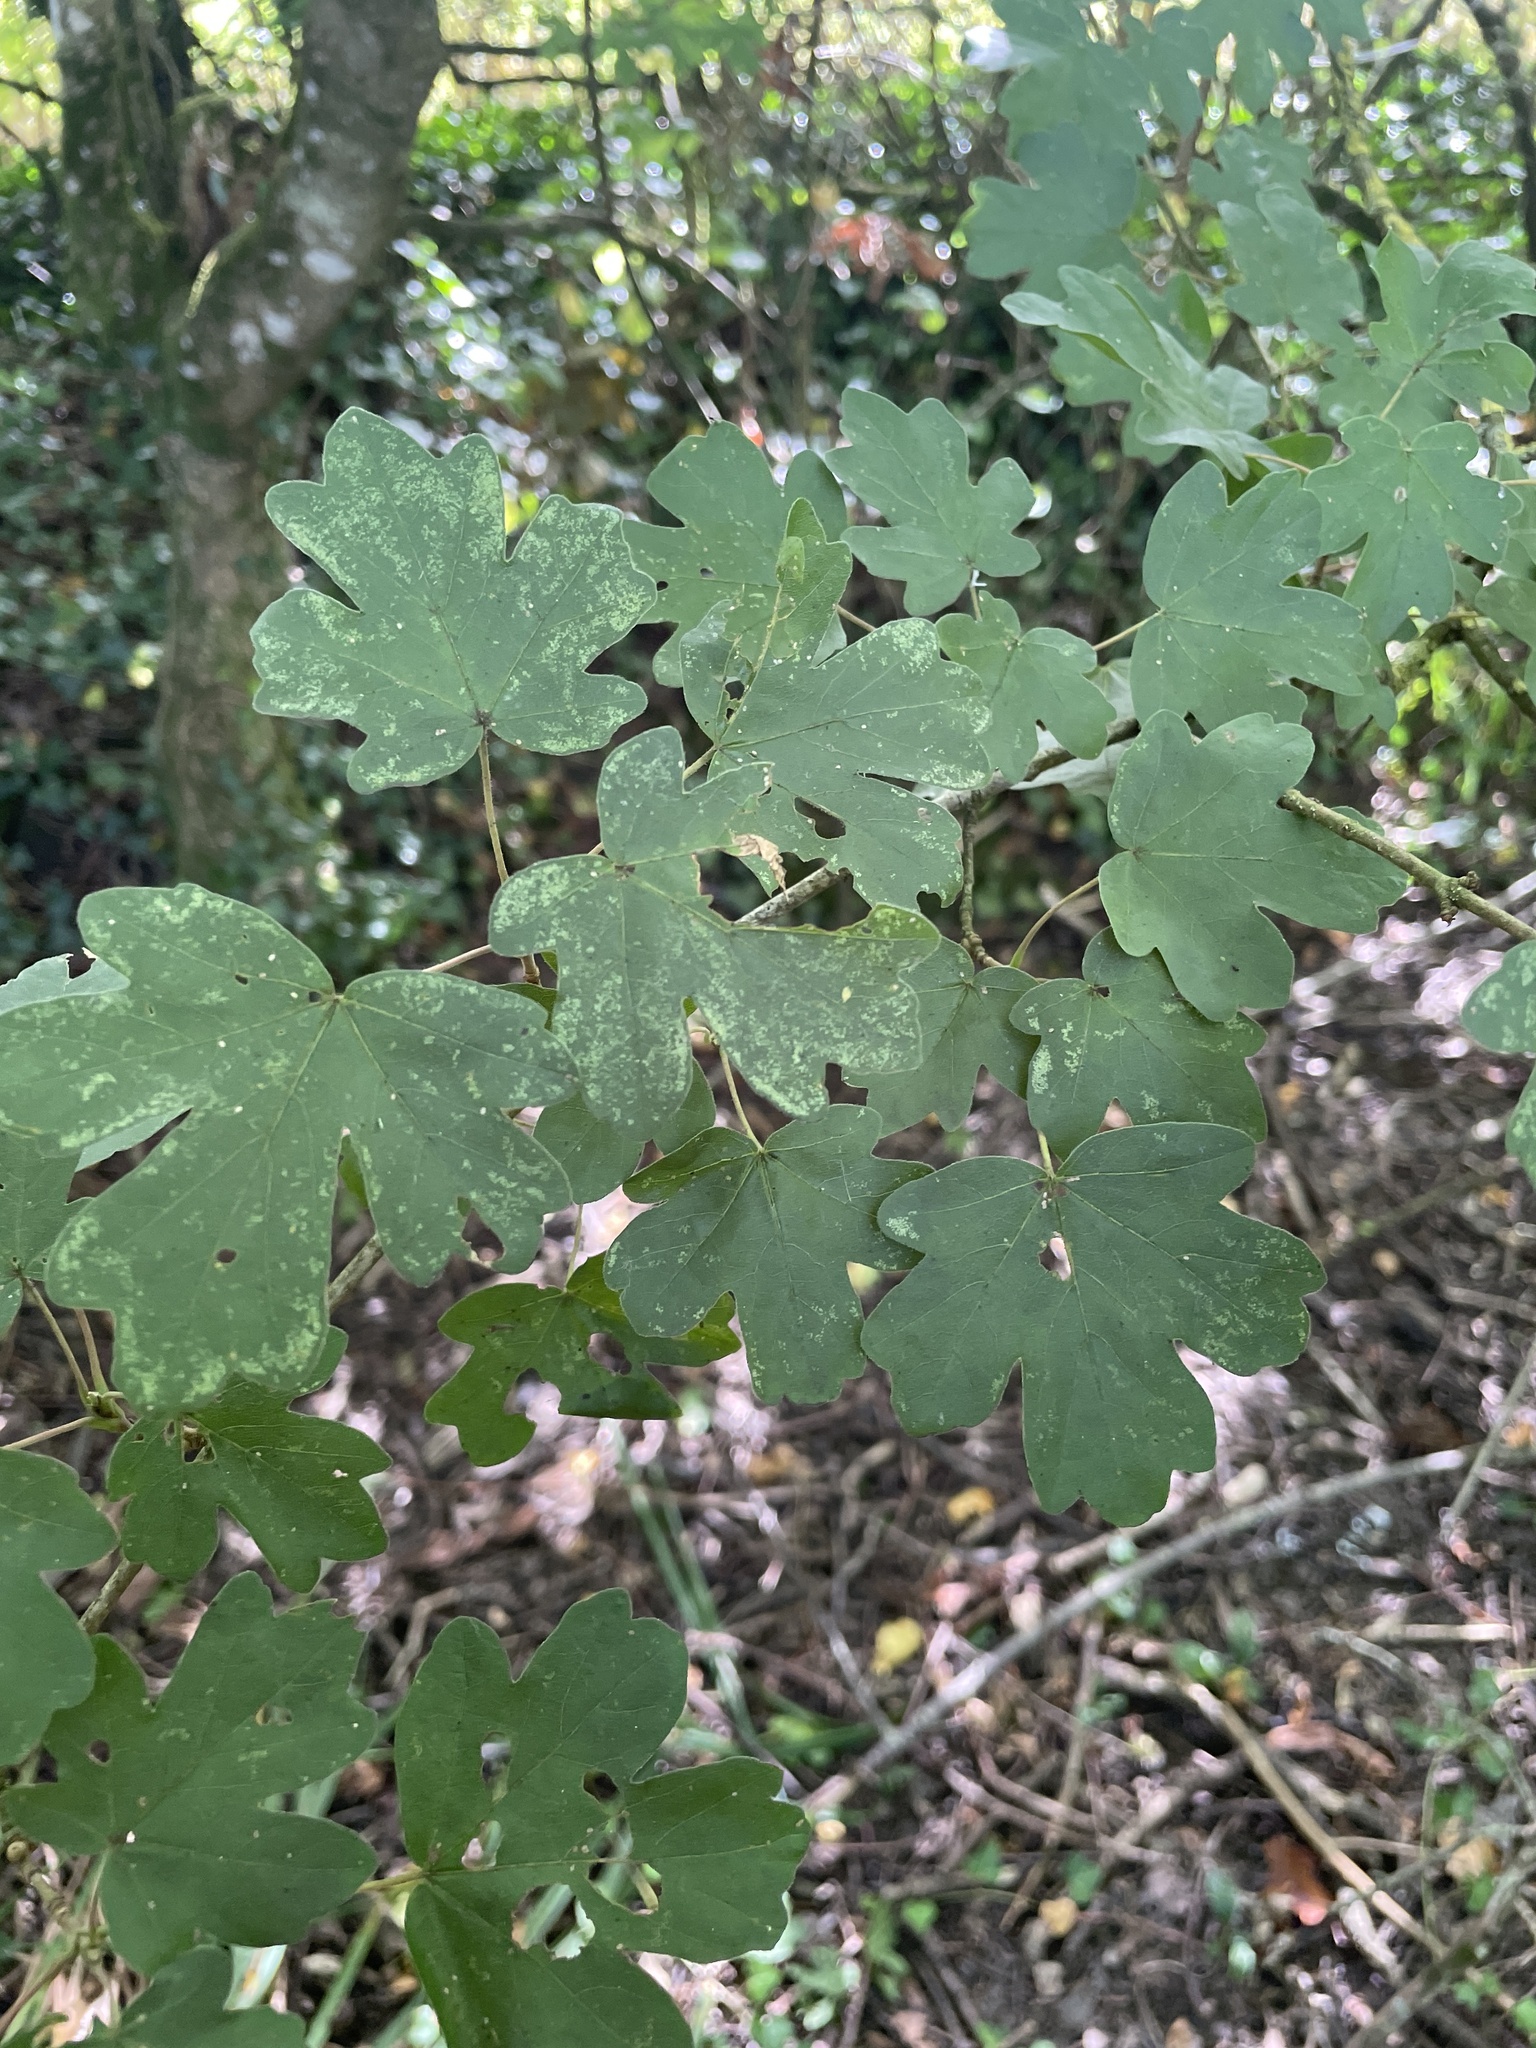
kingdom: Plantae
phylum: Tracheophyta
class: Magnoliopsida
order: Sapindales
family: Sapindaceae
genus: Acer
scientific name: Acer campestre
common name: Field maple
